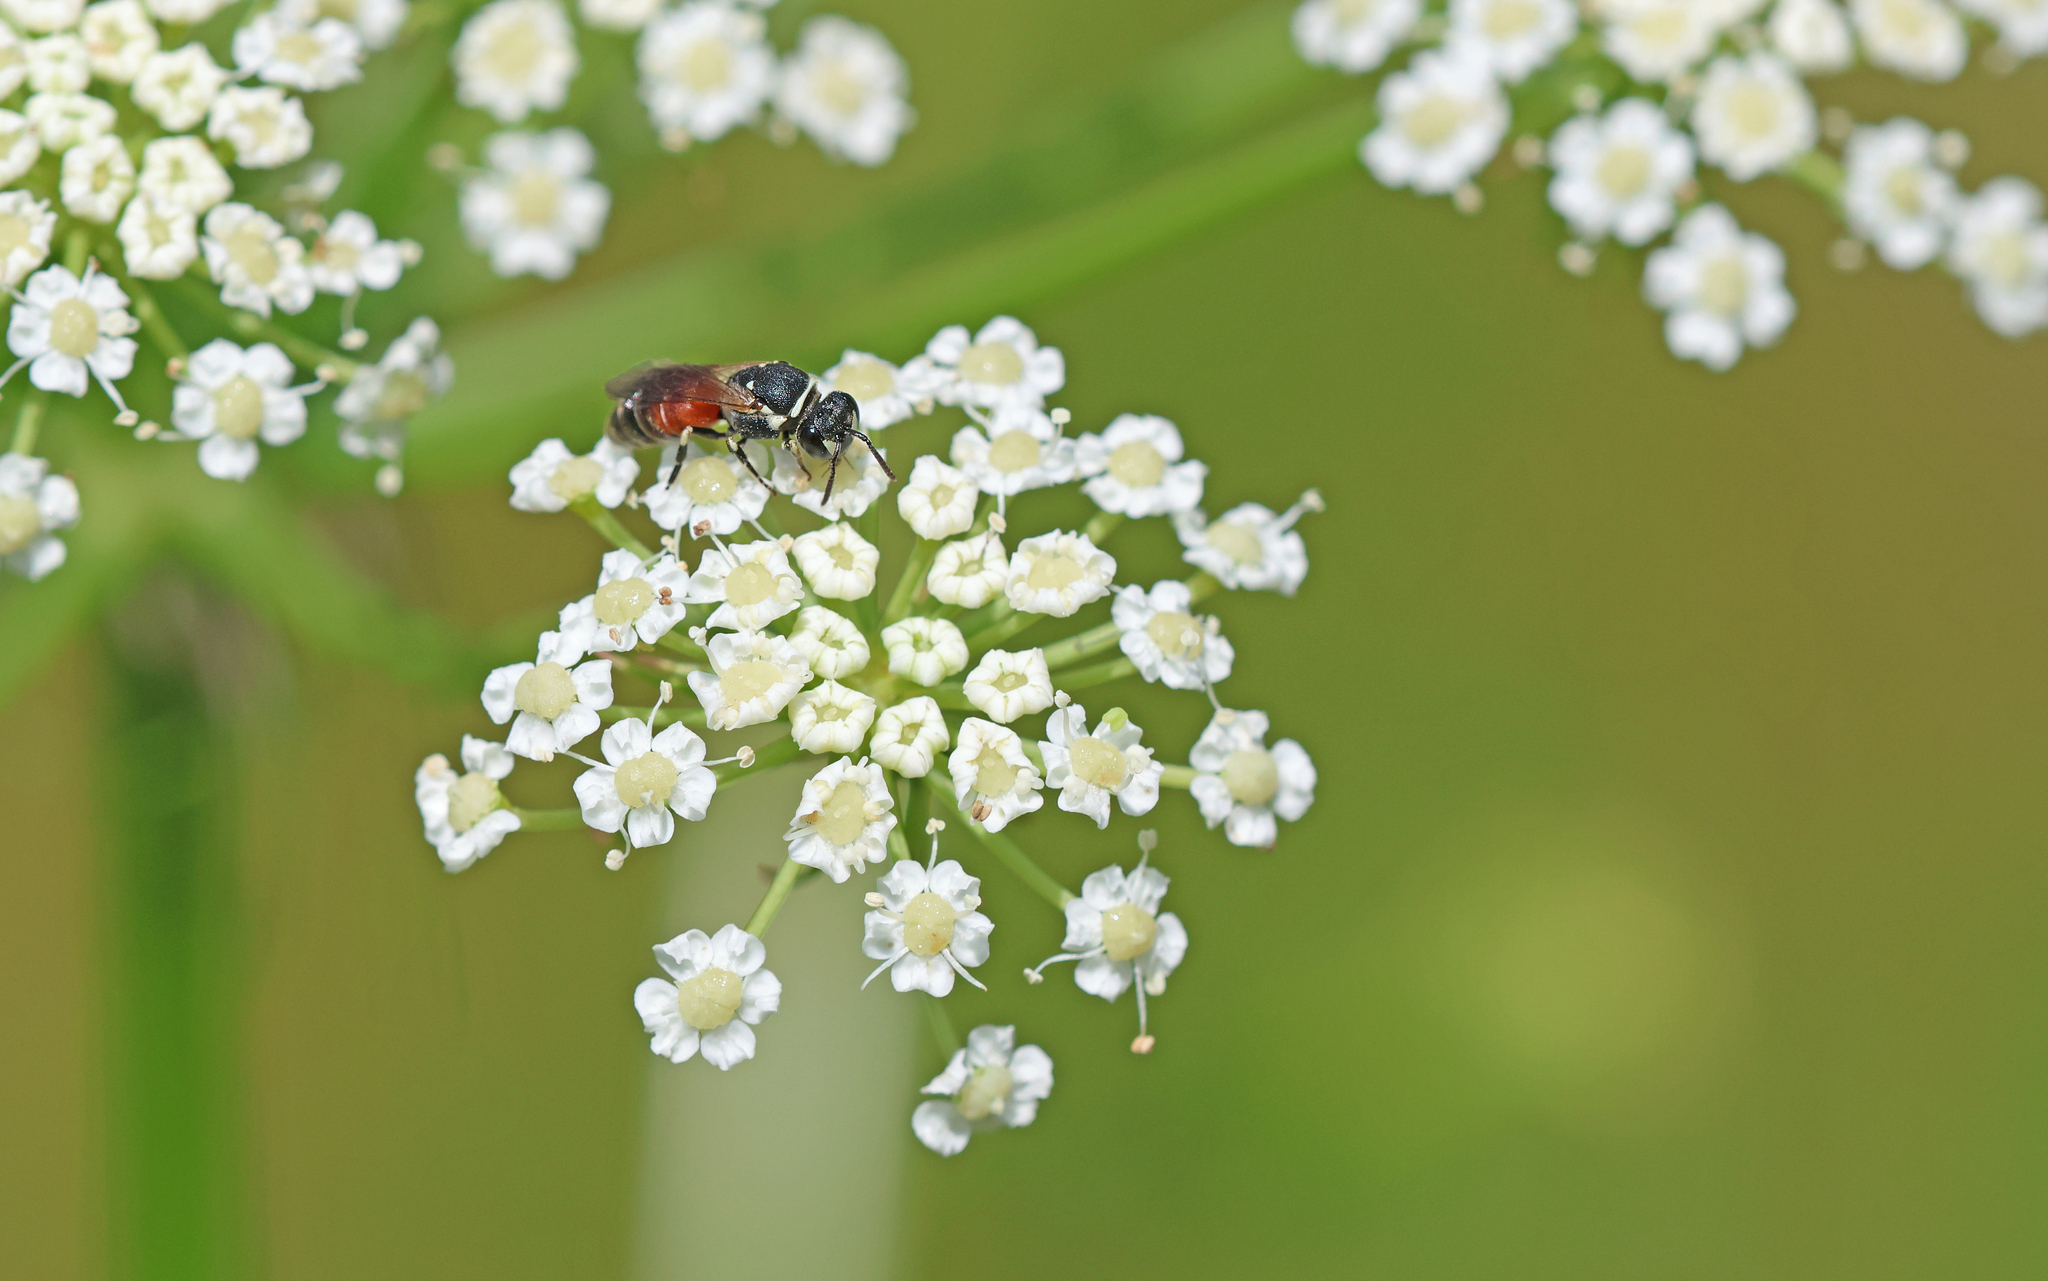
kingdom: Animalia
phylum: Arthropoda
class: Insecta
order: Hymenoptera
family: Colletidae
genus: Hylaeus
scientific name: Hylaeus variegatus
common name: Masked bee
